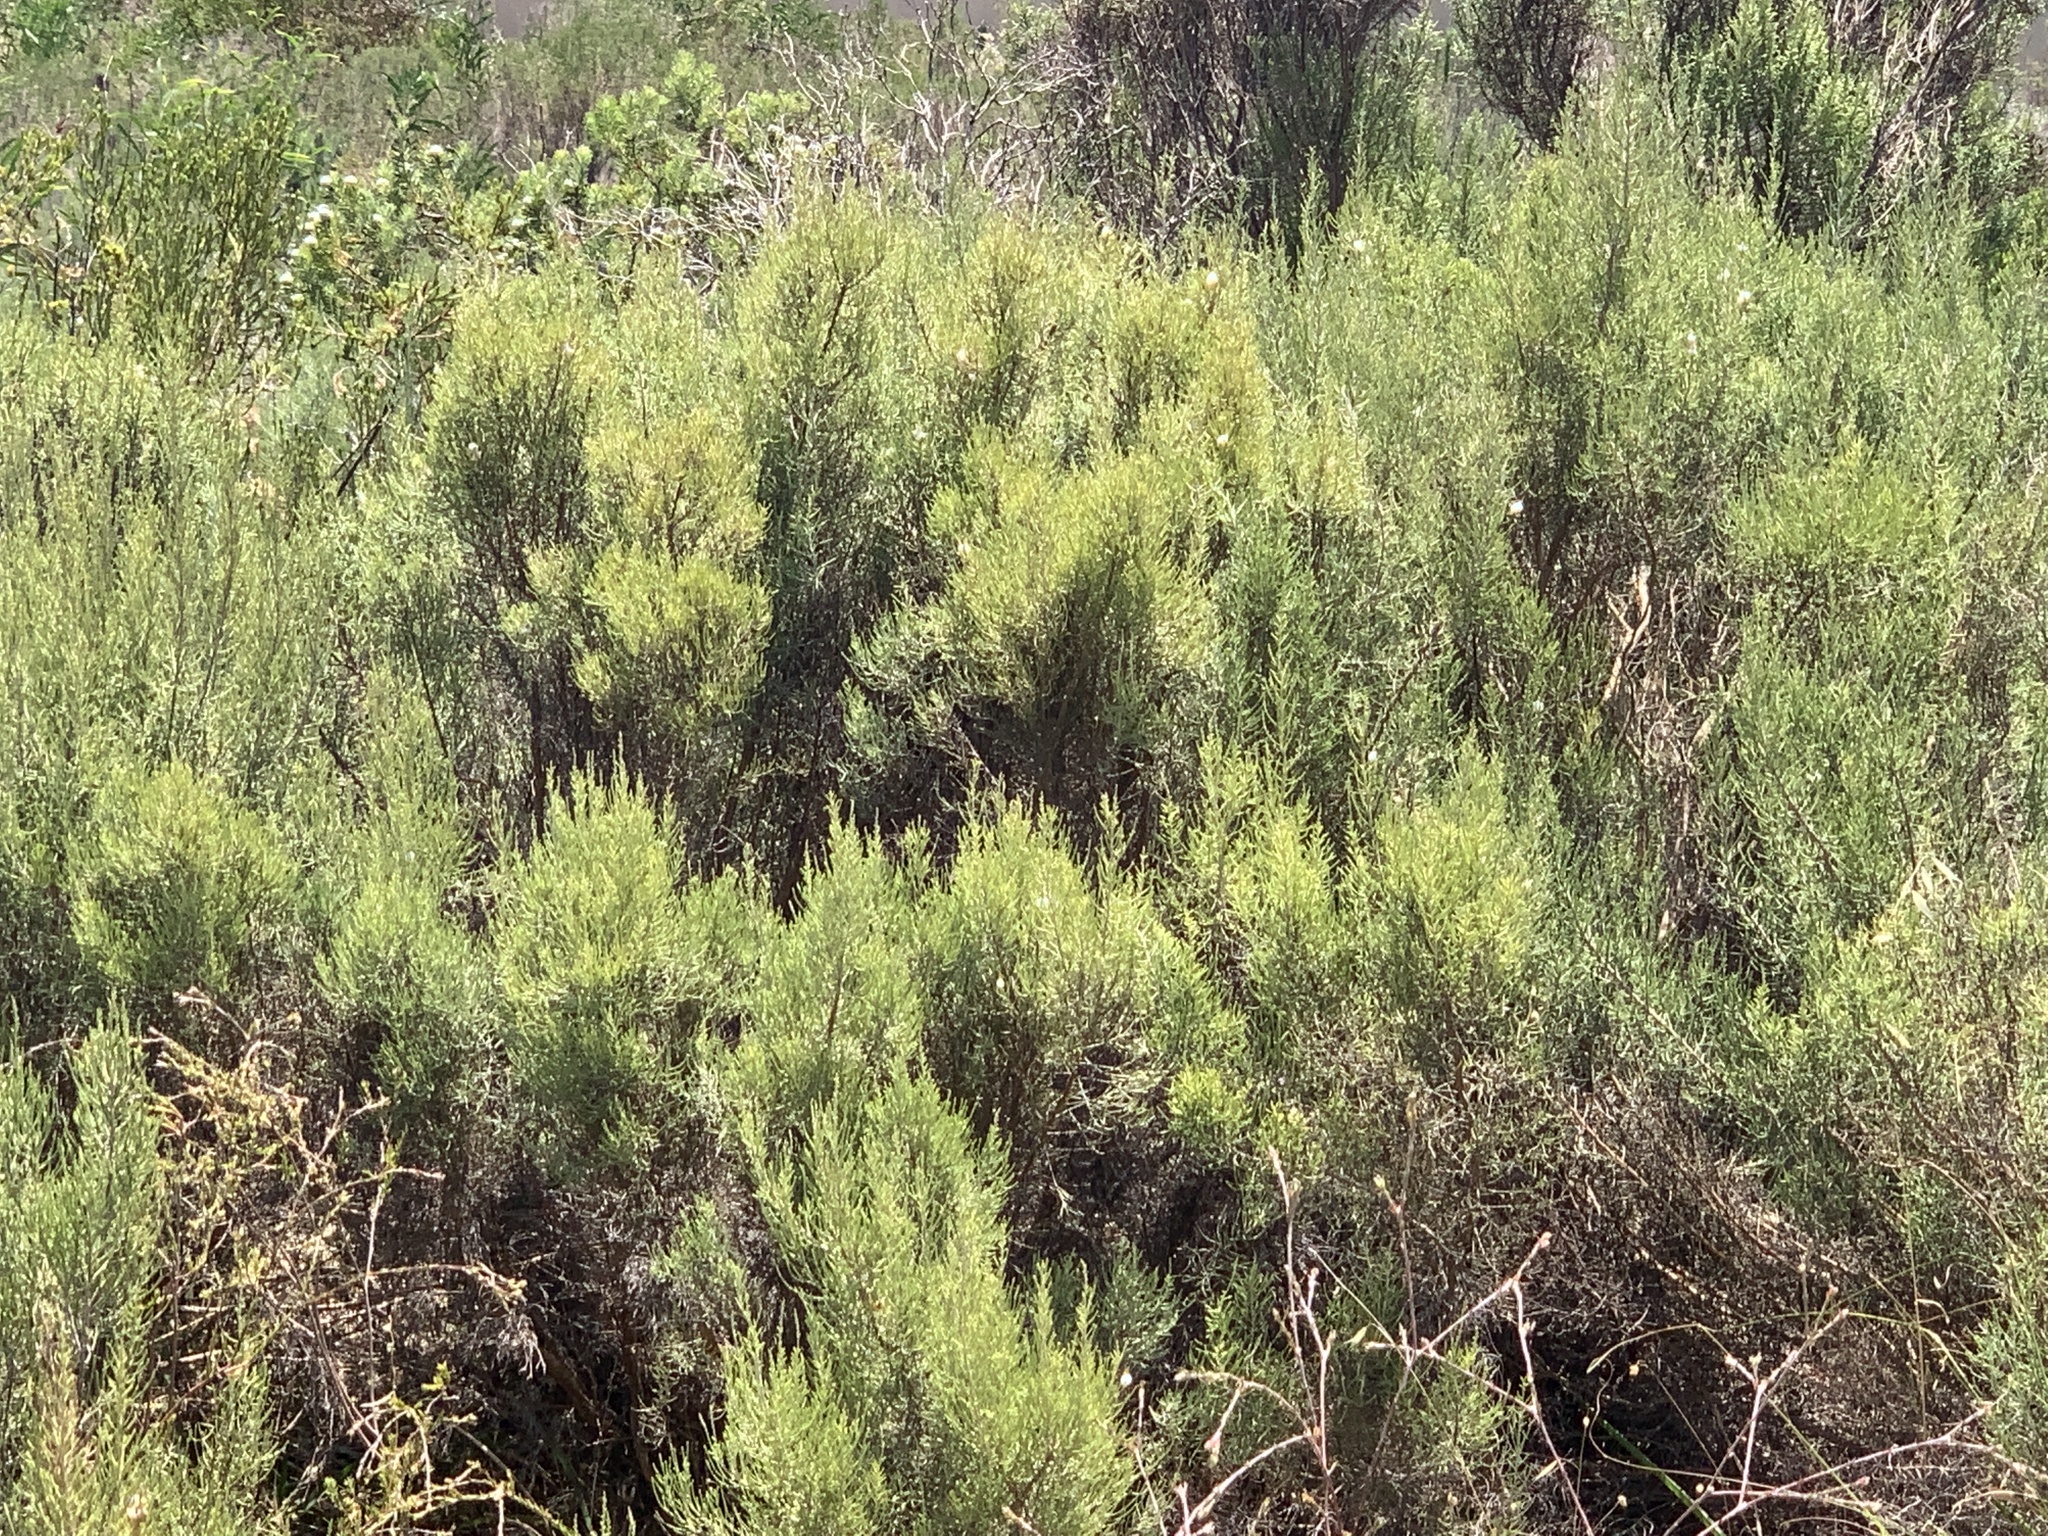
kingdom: Plantae
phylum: Tracheophyta
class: Magnoliopsida
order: Asterales
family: Asteraceae
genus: Dicerothamnus
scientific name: Dicerothamnus rhinocerotis
